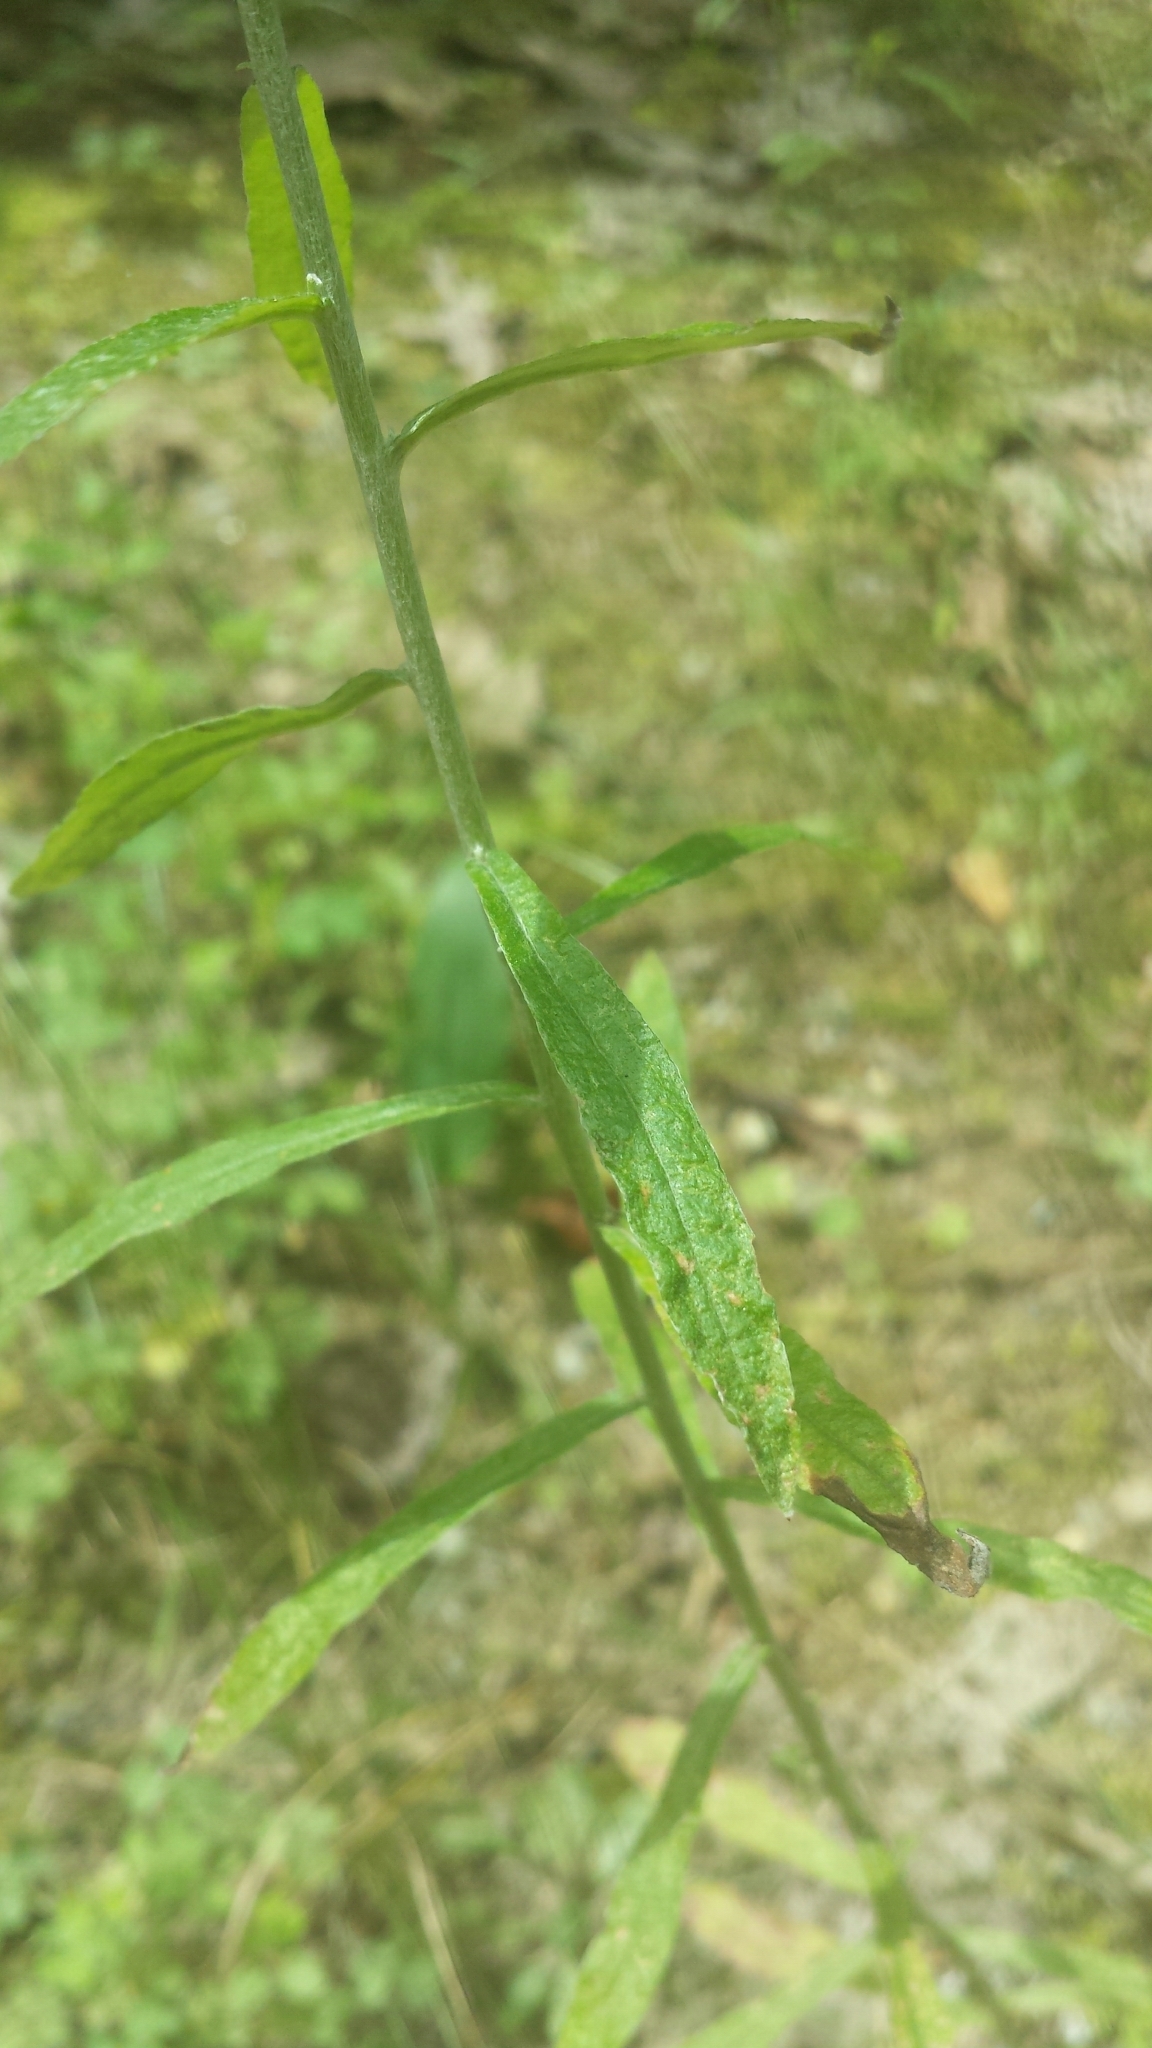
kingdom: Plantae
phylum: Tracheophyta
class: Magnoliopsida
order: Asterales
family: Asteraceae
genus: Pseudognaphalium
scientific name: Pseudognaphalium obtusifolium
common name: Eastern rabbit-tobacco
